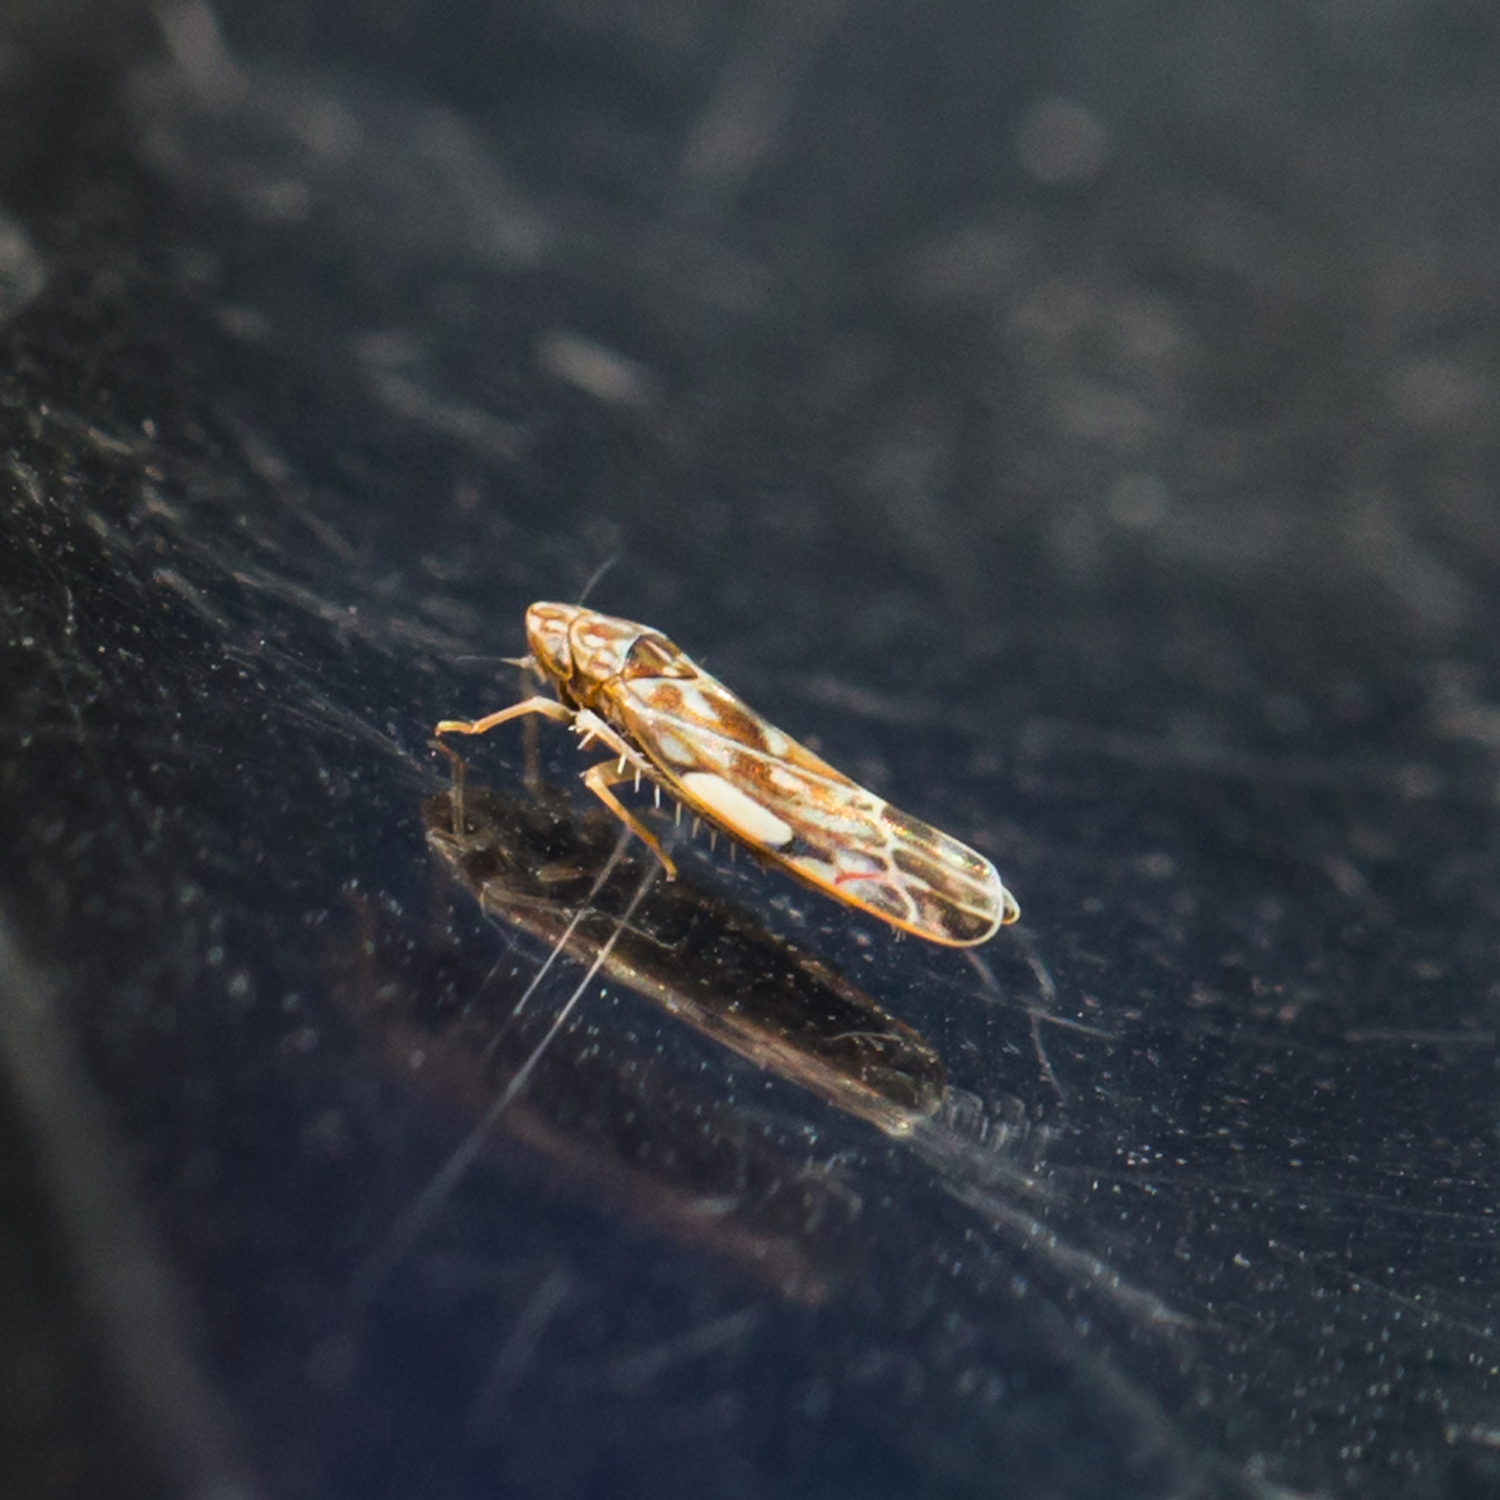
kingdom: Animalia
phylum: Arthropoda
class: Insecta
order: Hemiptera
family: Cicadellidae
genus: Erasmoneura
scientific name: Erasmoneura vulnerata
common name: The wounded leafhopper
